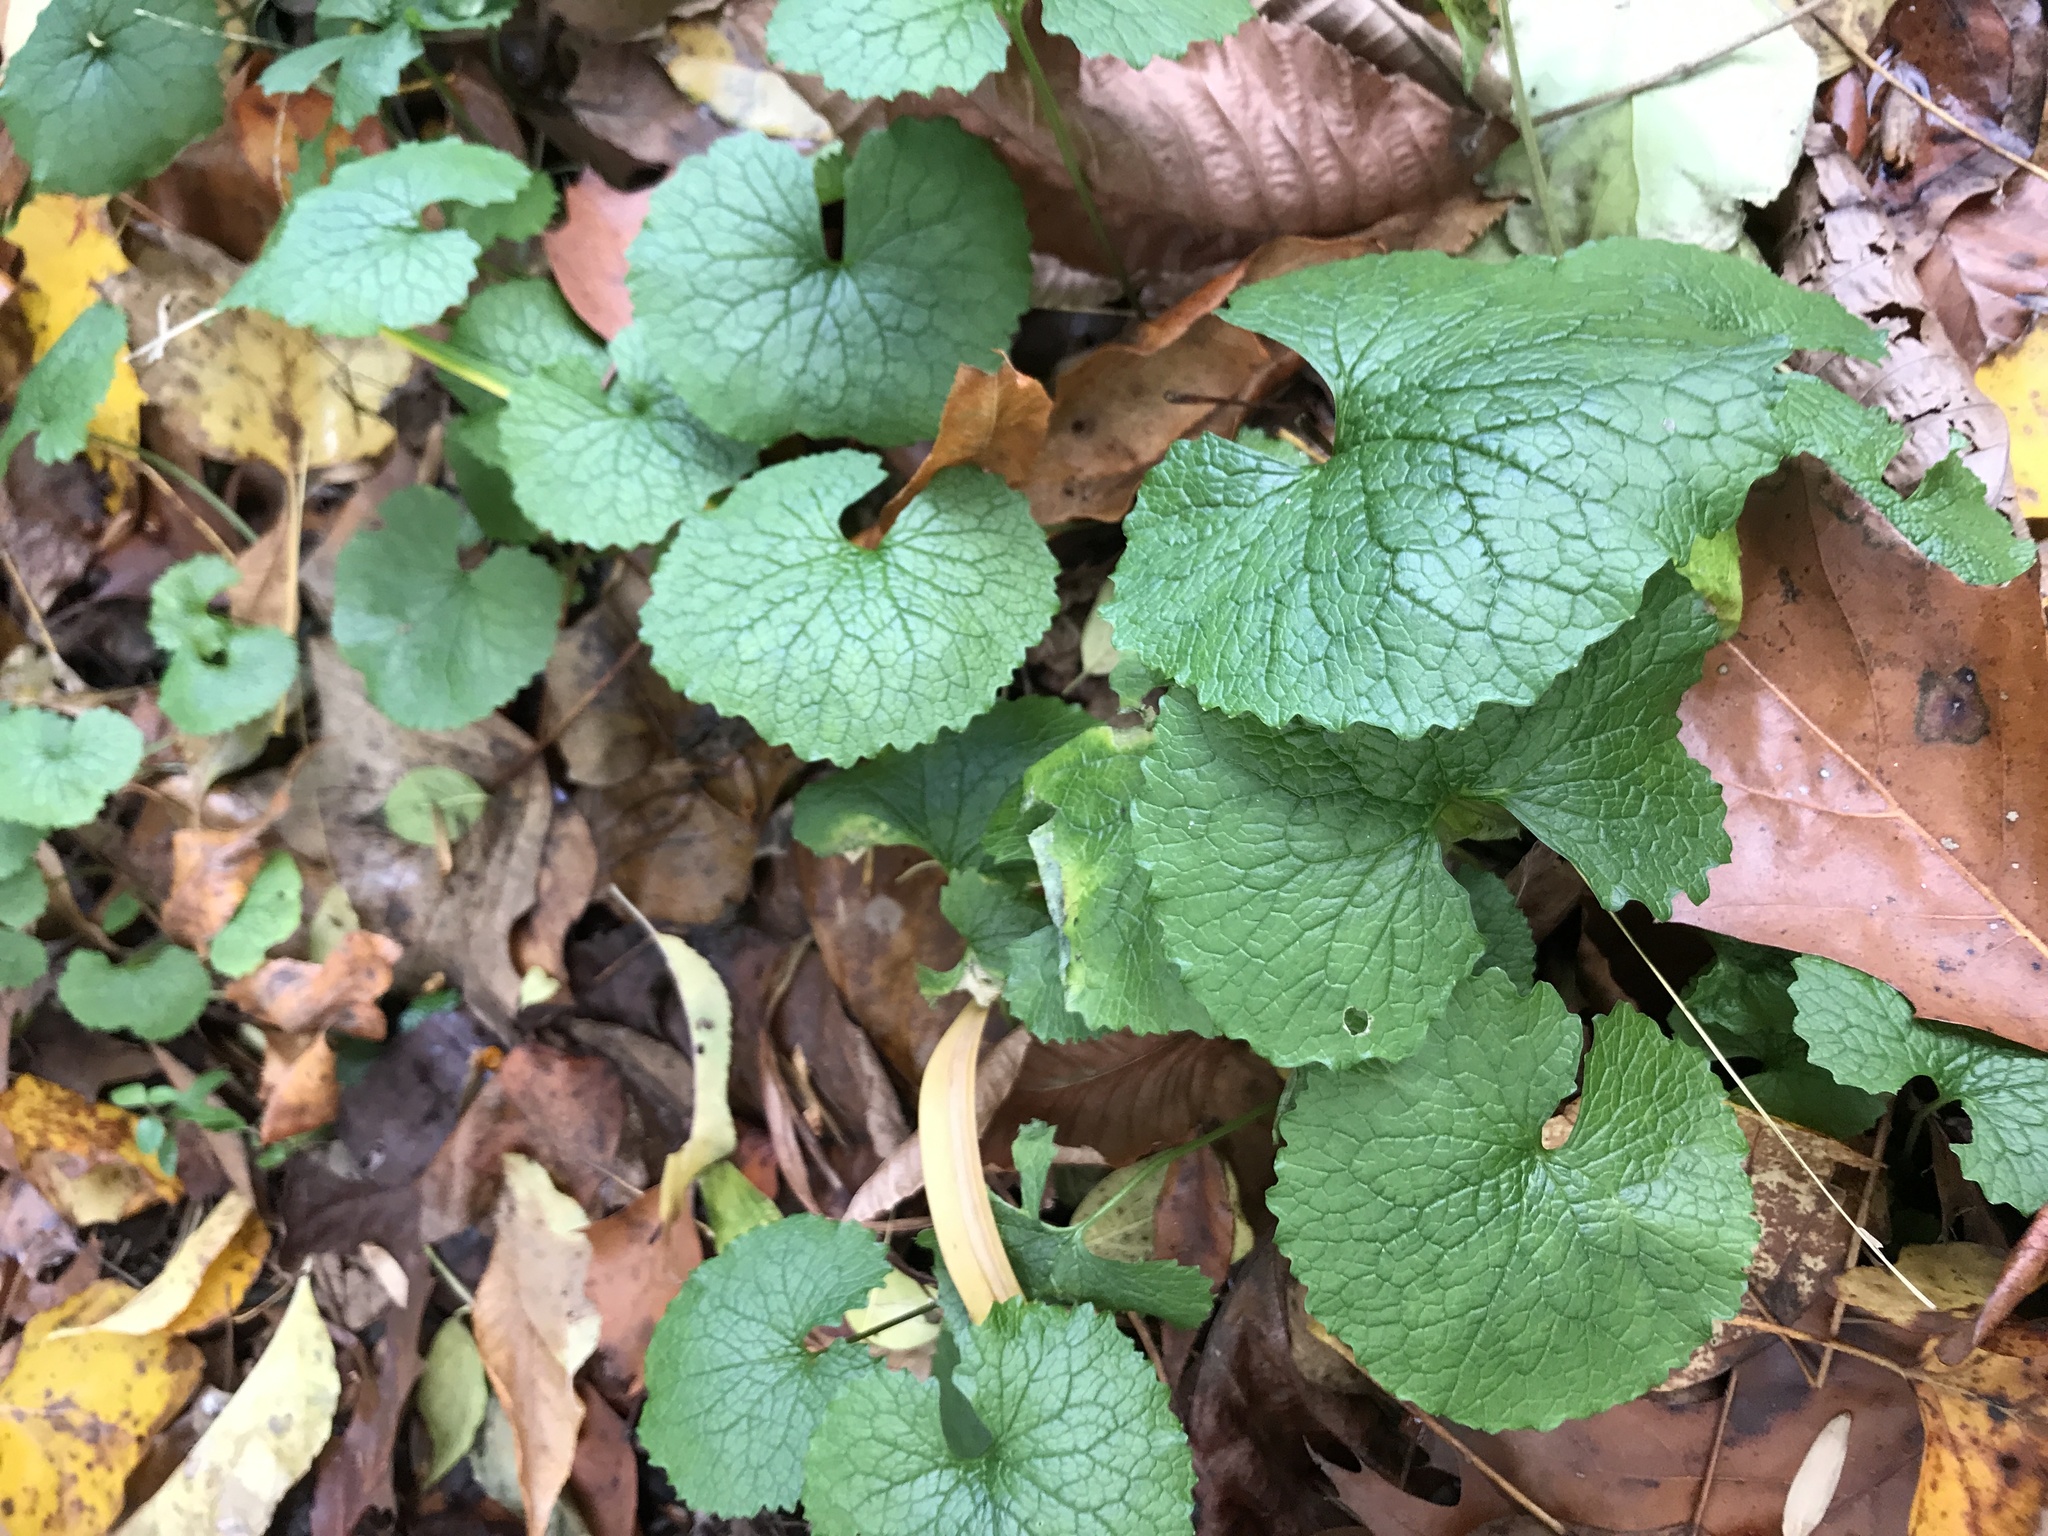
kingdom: Plantae
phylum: Tracheophyta
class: Magnoliopsida
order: Brassicales
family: Brassicaceae
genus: Alliaria
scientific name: Alliaria petiolata
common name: Garlic mustard
